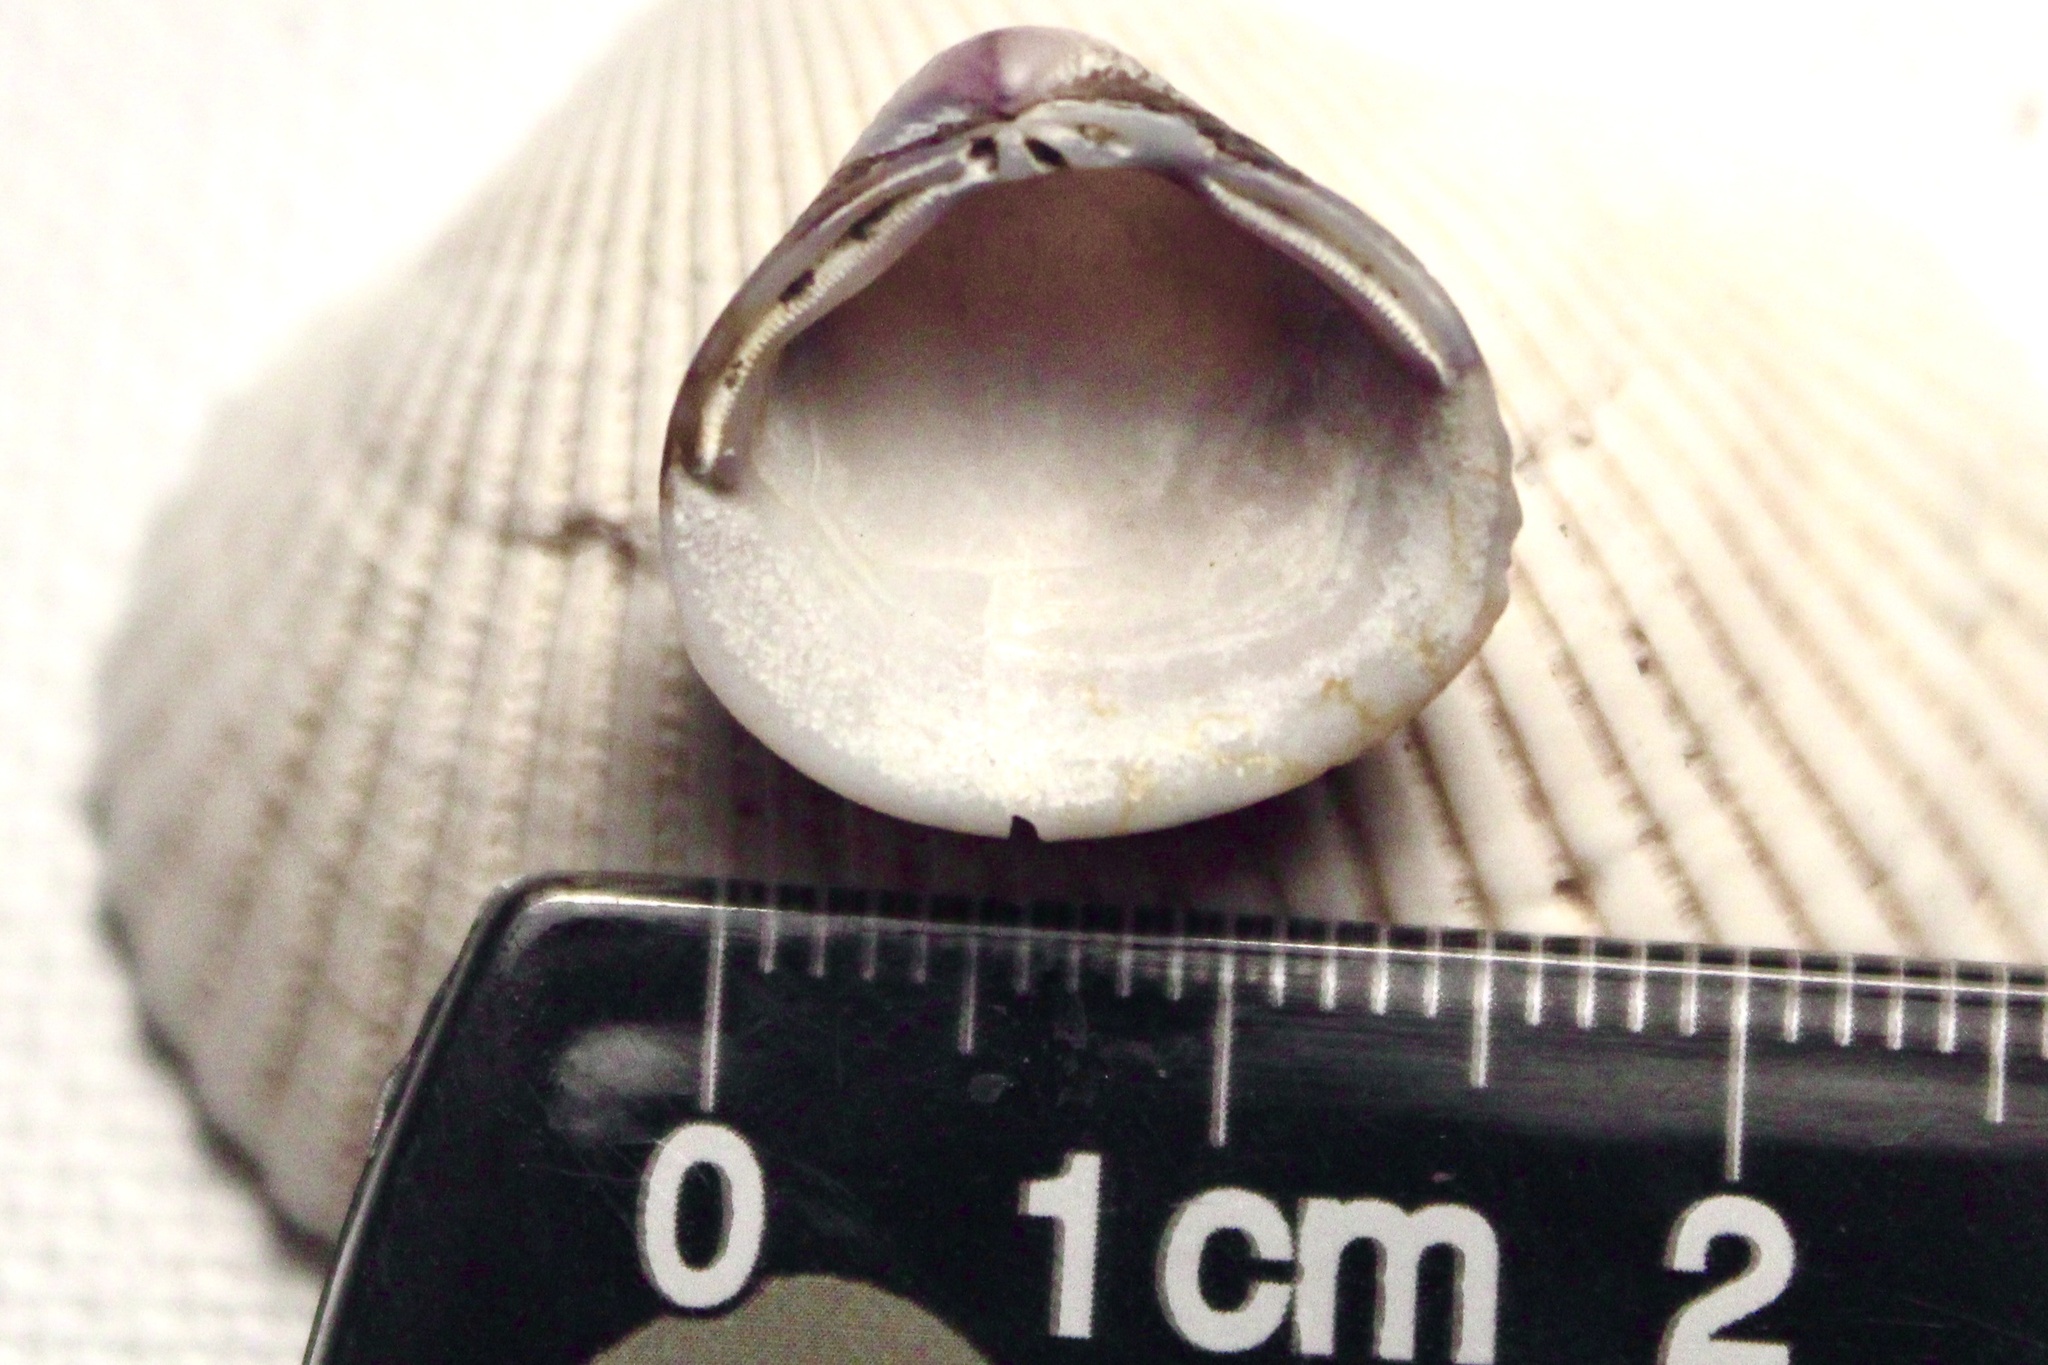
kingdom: Animalia
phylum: Mollusca
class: Bivalvia
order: Venerida
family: Cyrenidae
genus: Corbicula
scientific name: Corbicula
